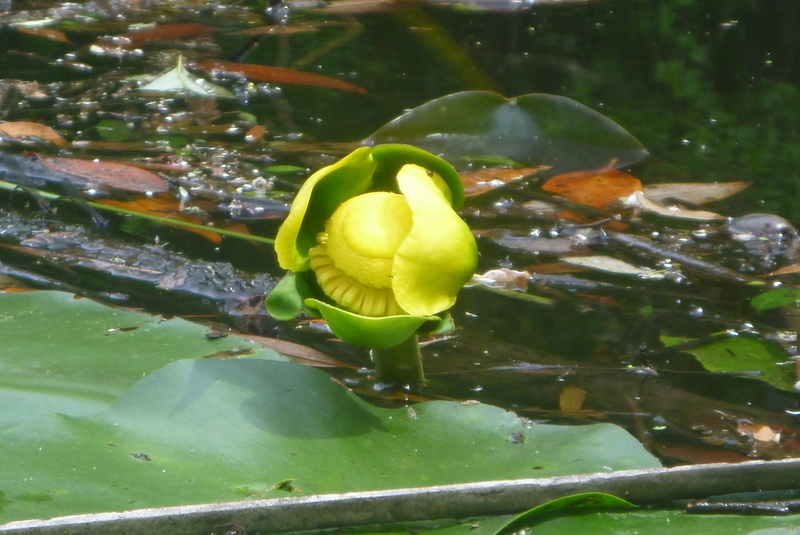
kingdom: Plantae
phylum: Tracheophyta
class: Magnoliopsida
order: Nymphaeales
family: Nymphaeaceae
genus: Nuphar
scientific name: Nuphar advena
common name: Spatter-dock
